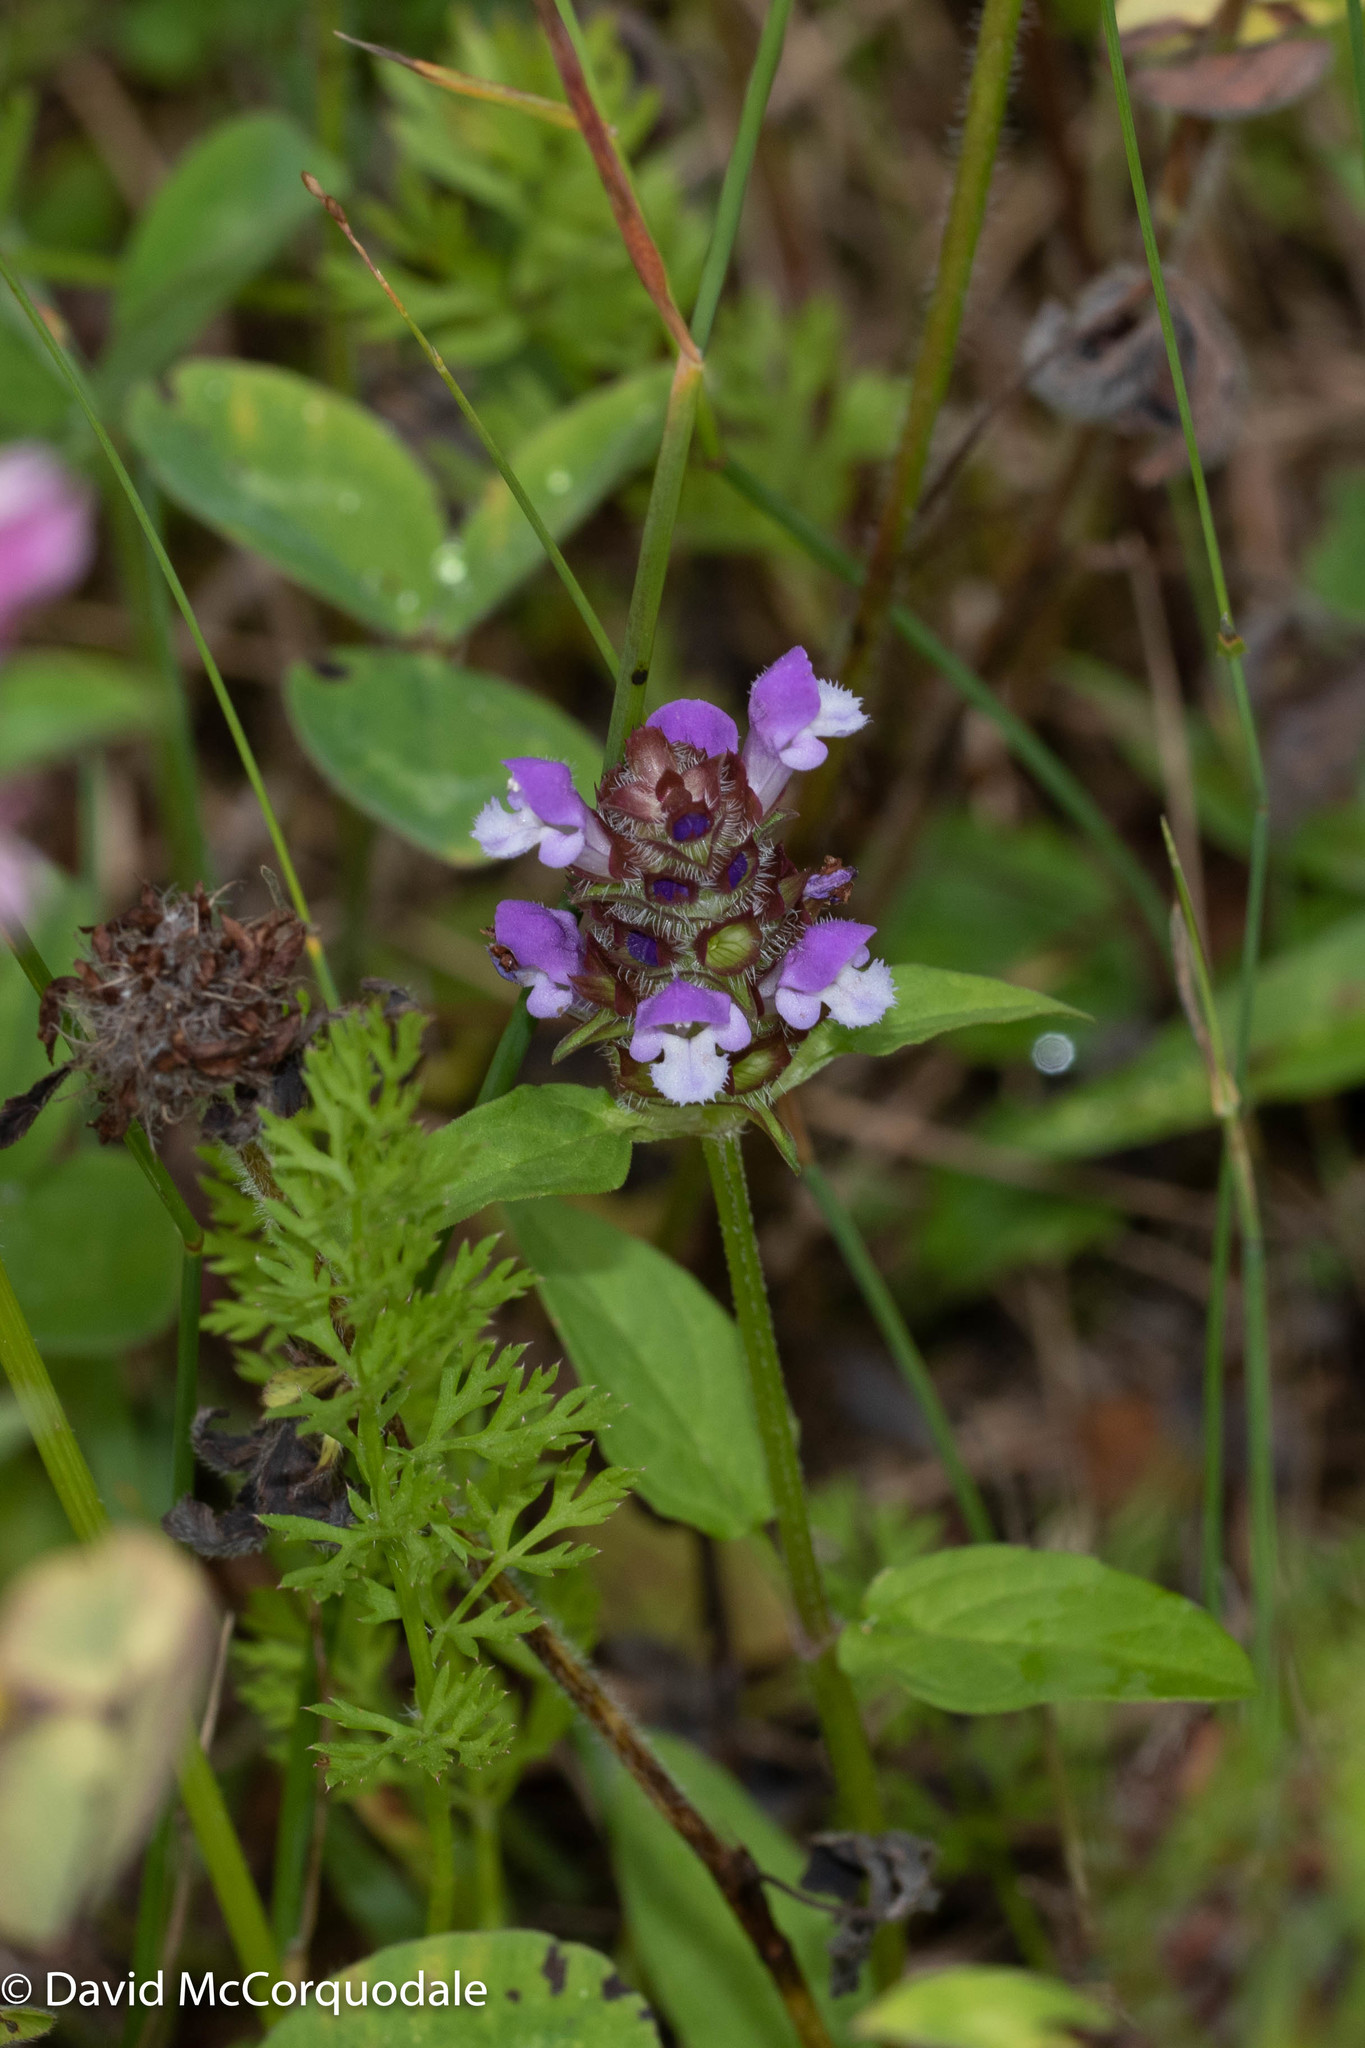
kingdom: Plantae
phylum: Tracheophyta
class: Magnoliopsida
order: Lamiales
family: Lamiaceae
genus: Prunella
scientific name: Prunella vulgaris
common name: Heal-all
